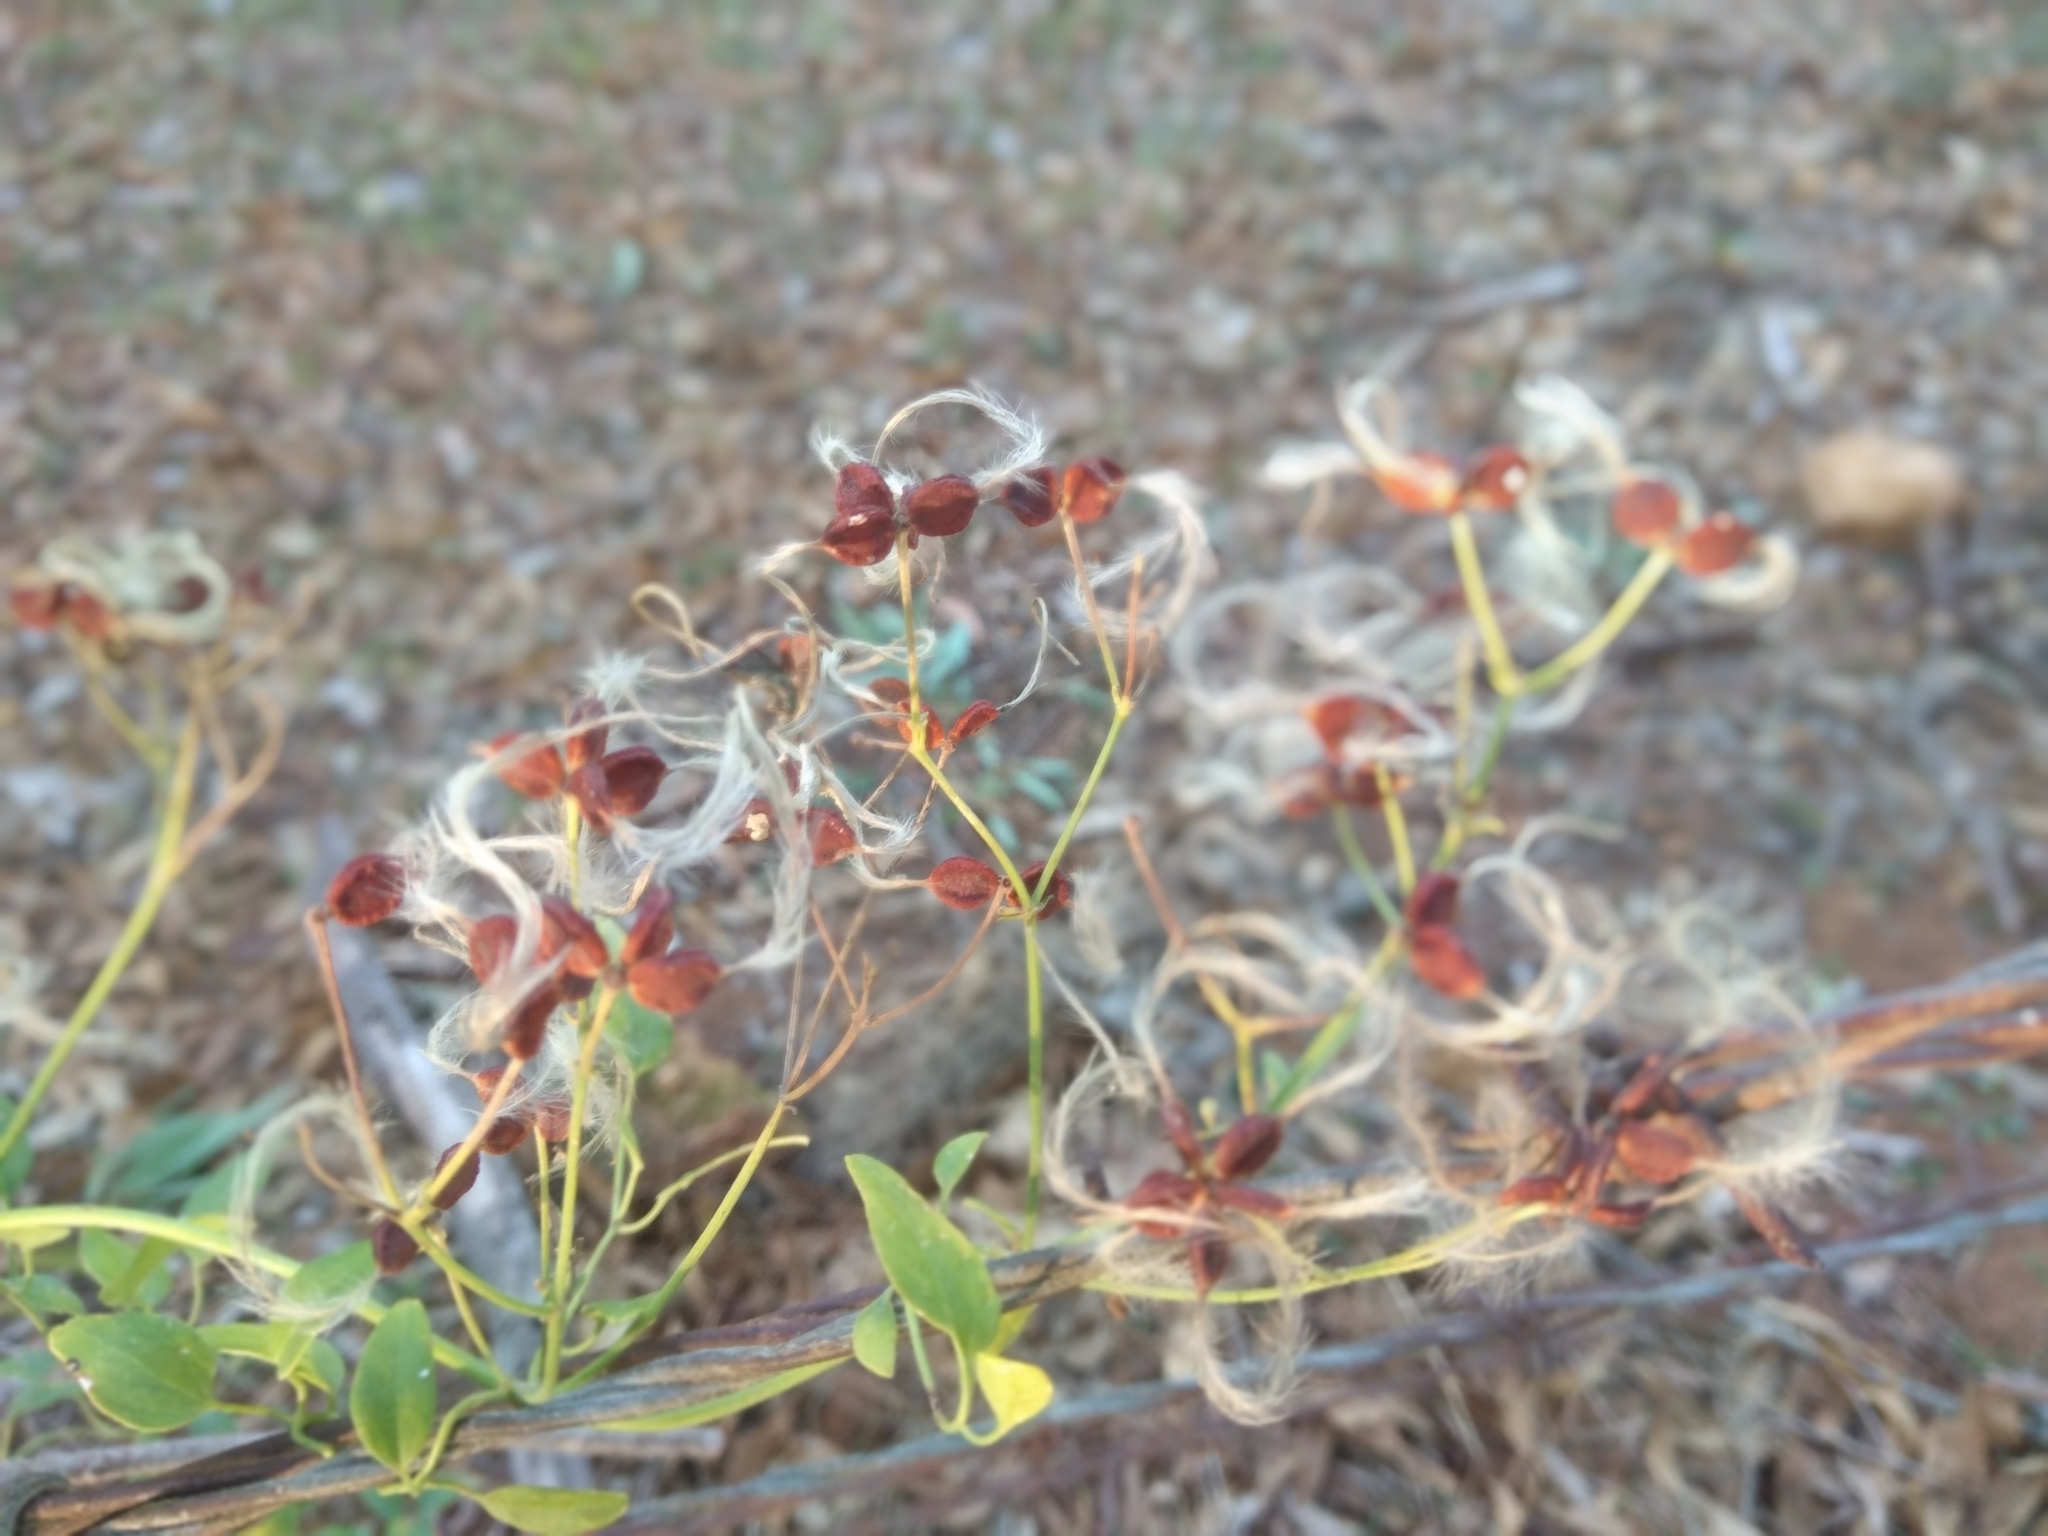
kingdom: Plantae
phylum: Tracheophyta
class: Magnoliopsida
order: Ranunculales
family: Ranunculaceae
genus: Clematis
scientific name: Clematis flammula
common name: Virgin's-bower
